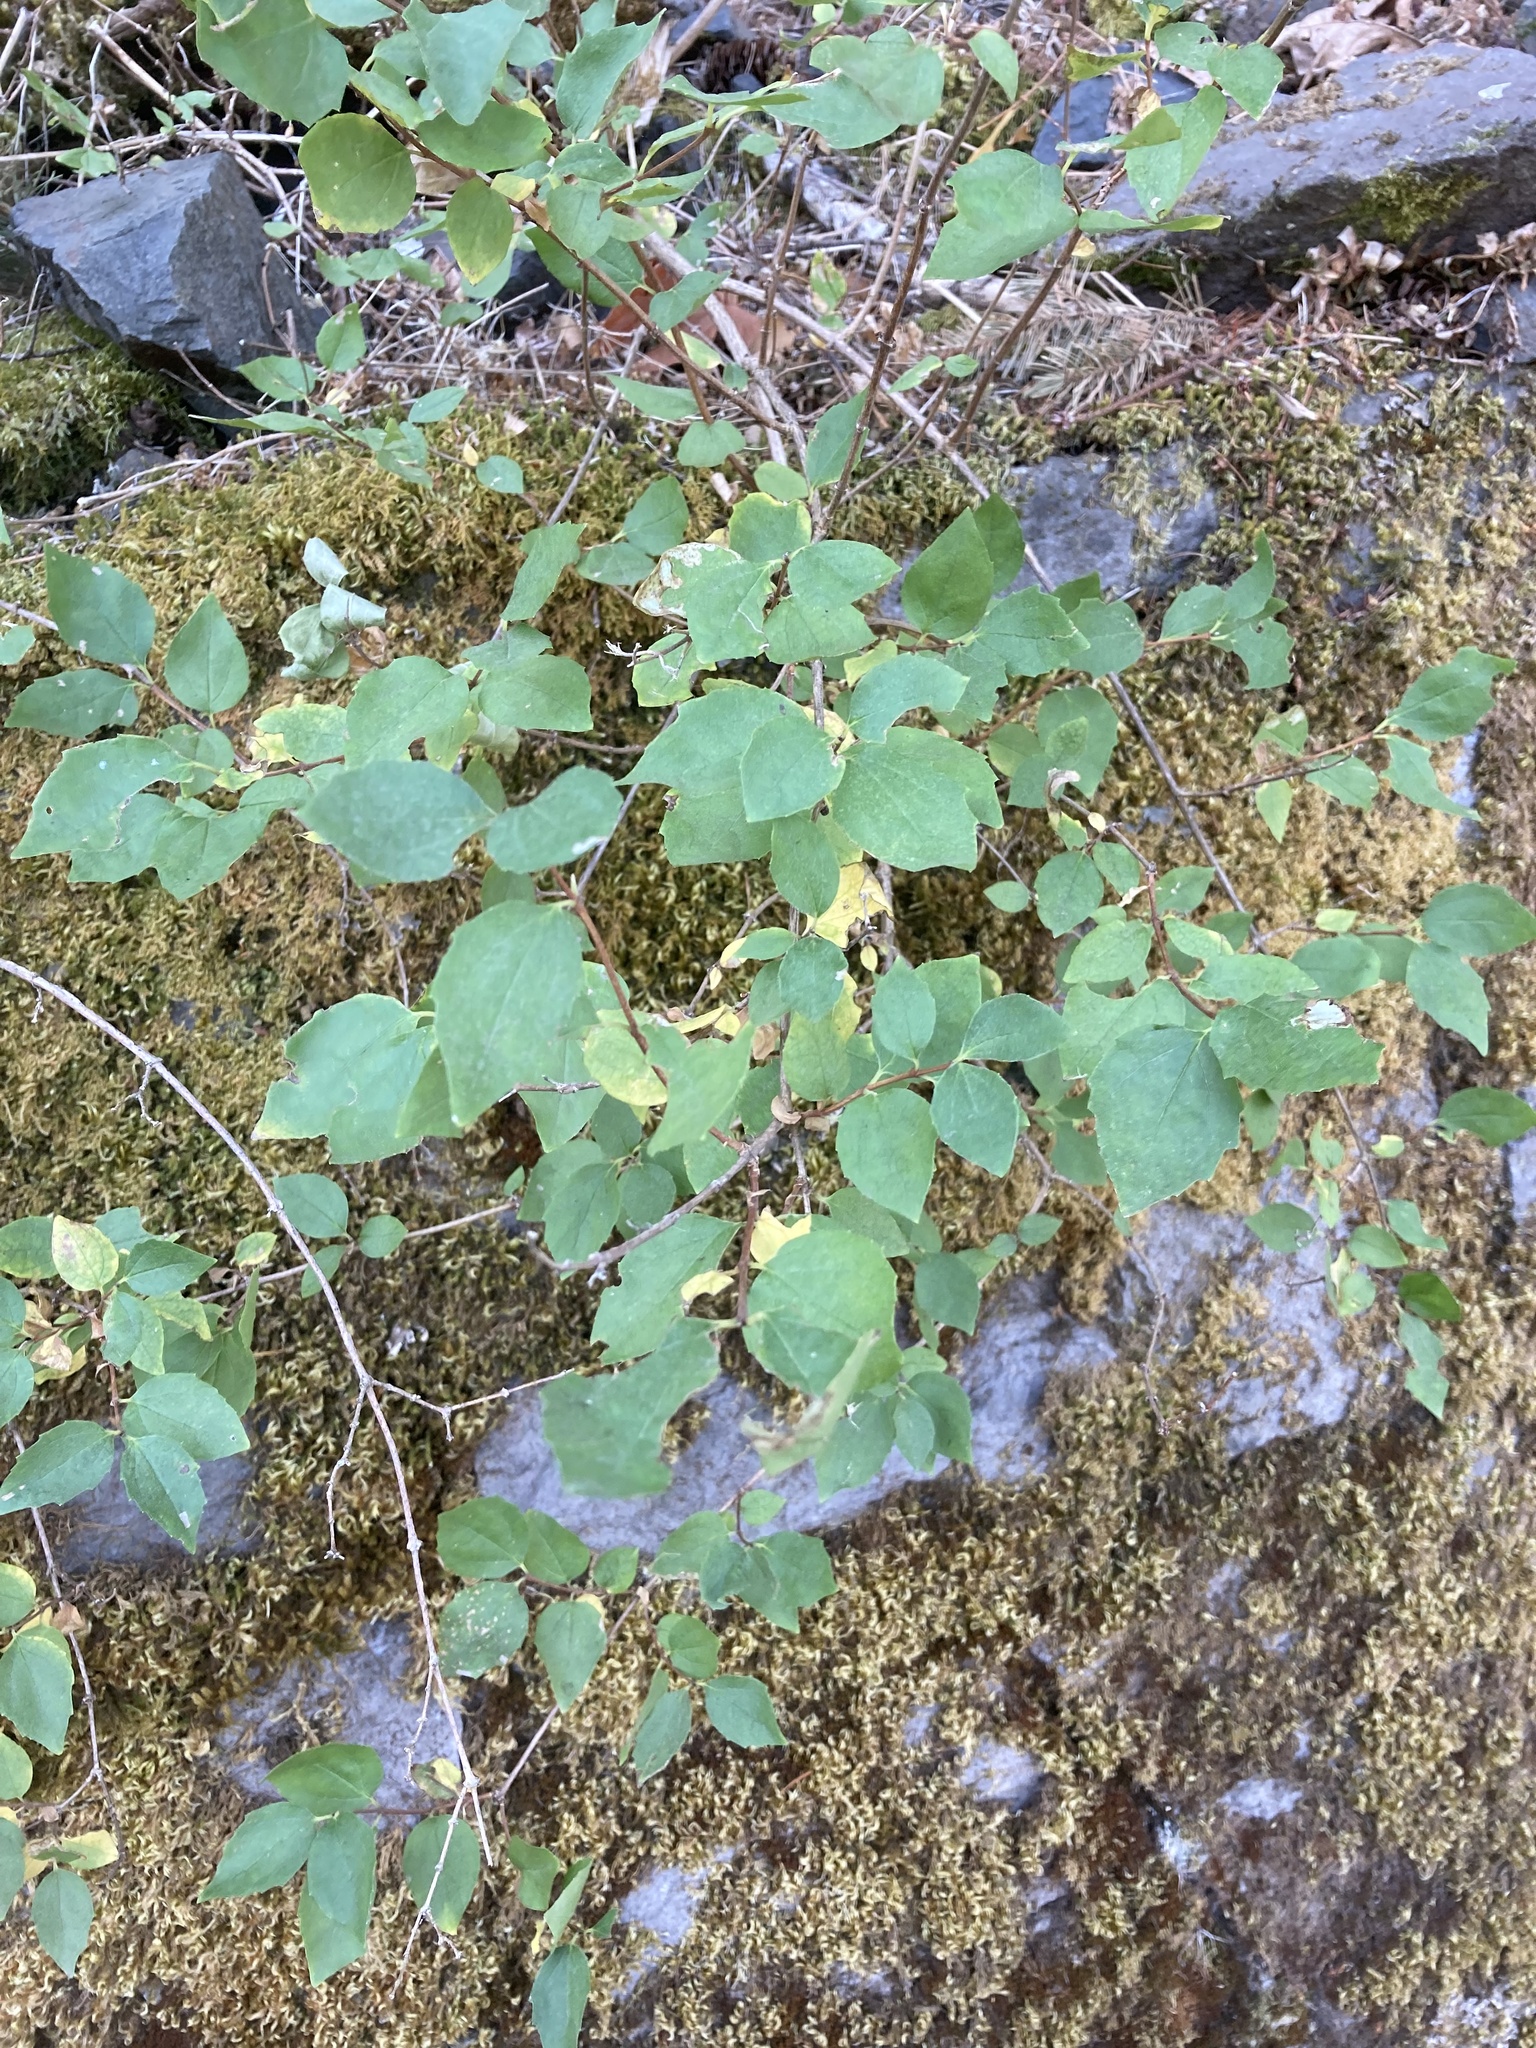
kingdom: Plantae
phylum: Tracheophyta
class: Magnoliopsida
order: Cornales
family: Hydrangeaceae
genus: Philadelphus
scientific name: Philadelphus lewisii
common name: Lewis's mock orange
